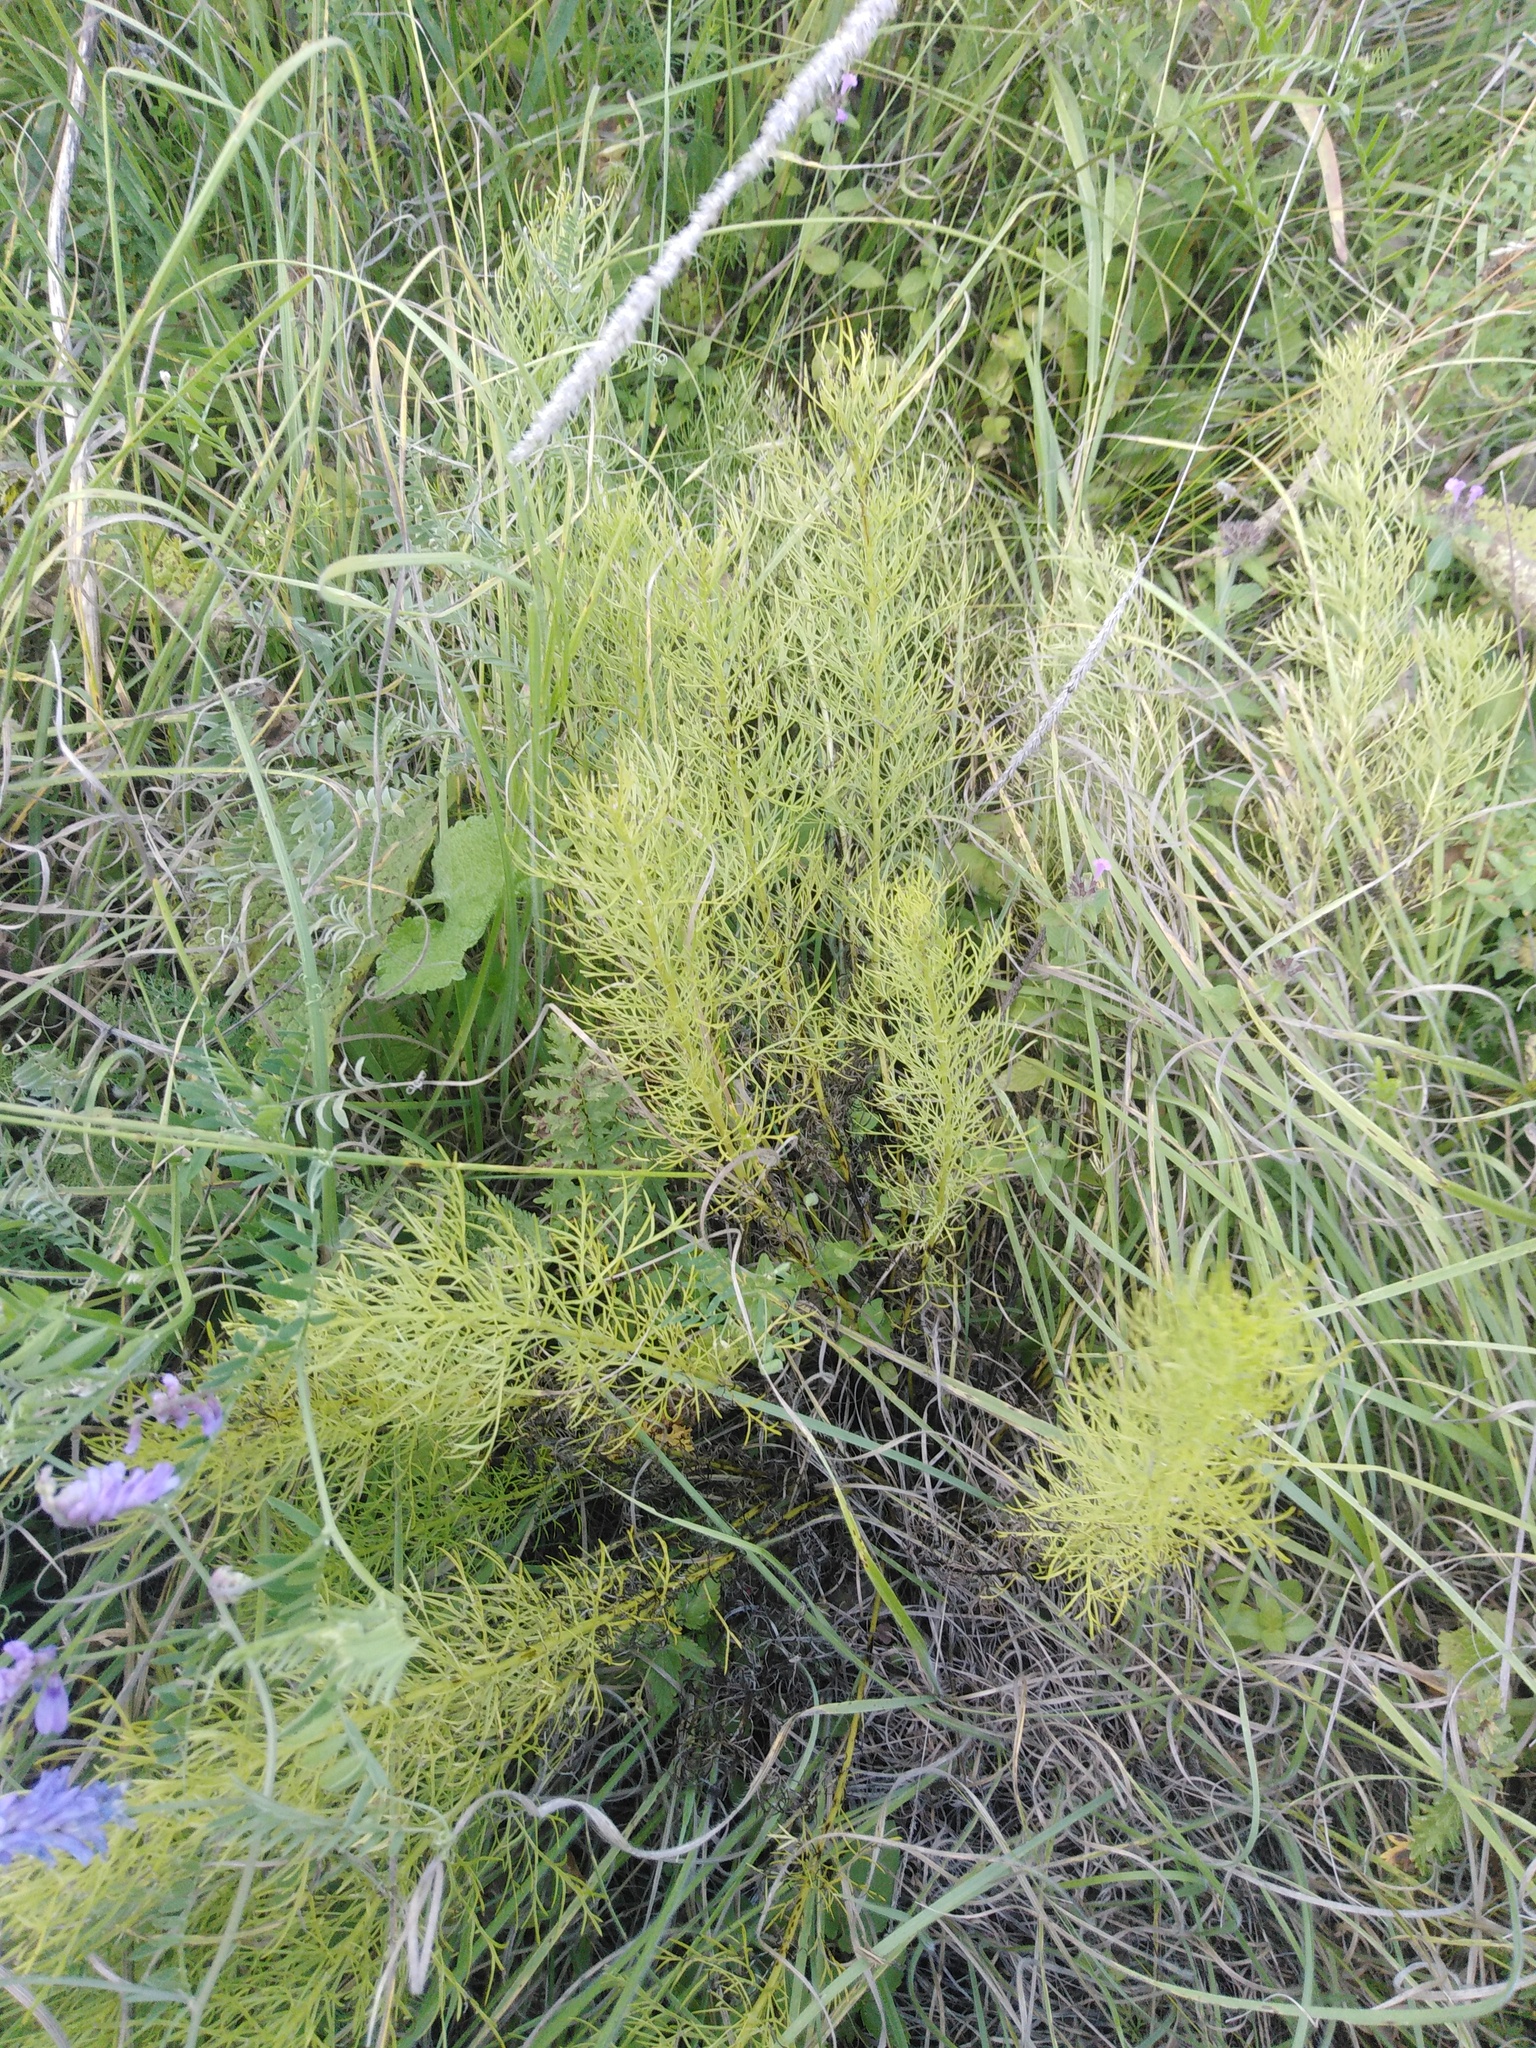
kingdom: Plantae
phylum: Tracheophyta
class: Magnoliopsida
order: Ranunculales
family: Ranunculaceae
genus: Adonis
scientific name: Adonis vernalis
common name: Yellow pheasants-eye
